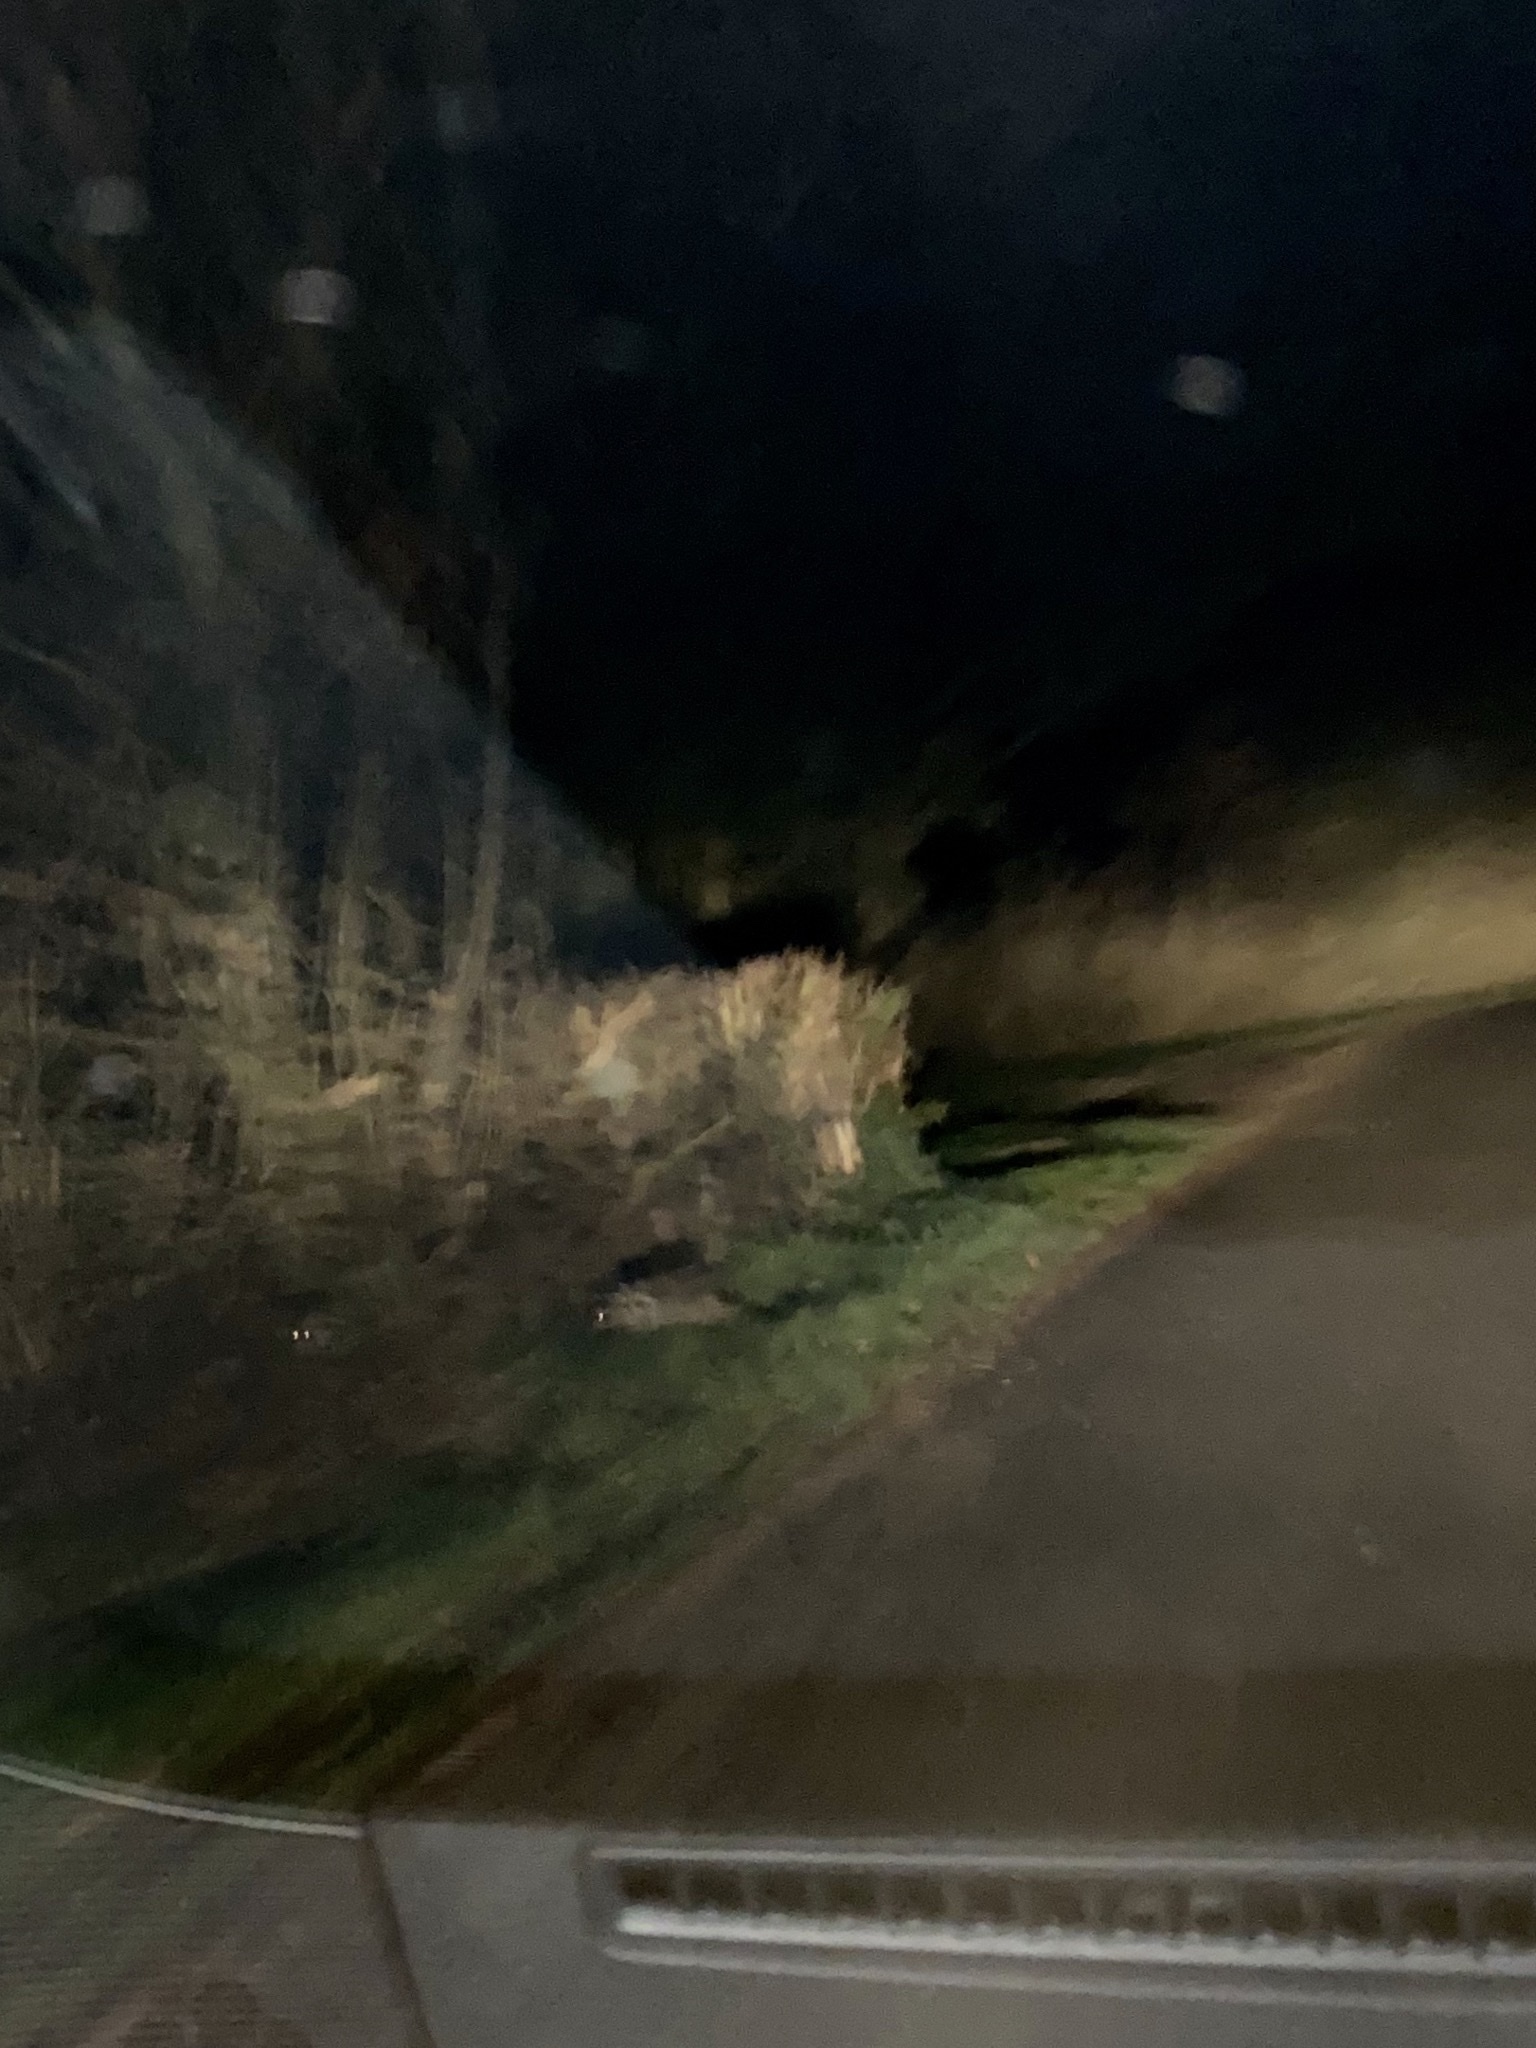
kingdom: Animalia
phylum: Chordata
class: Mammalia
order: Carnivora
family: Procyonidae
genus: Procyon
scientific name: Procyon lotor
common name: Raccoon
